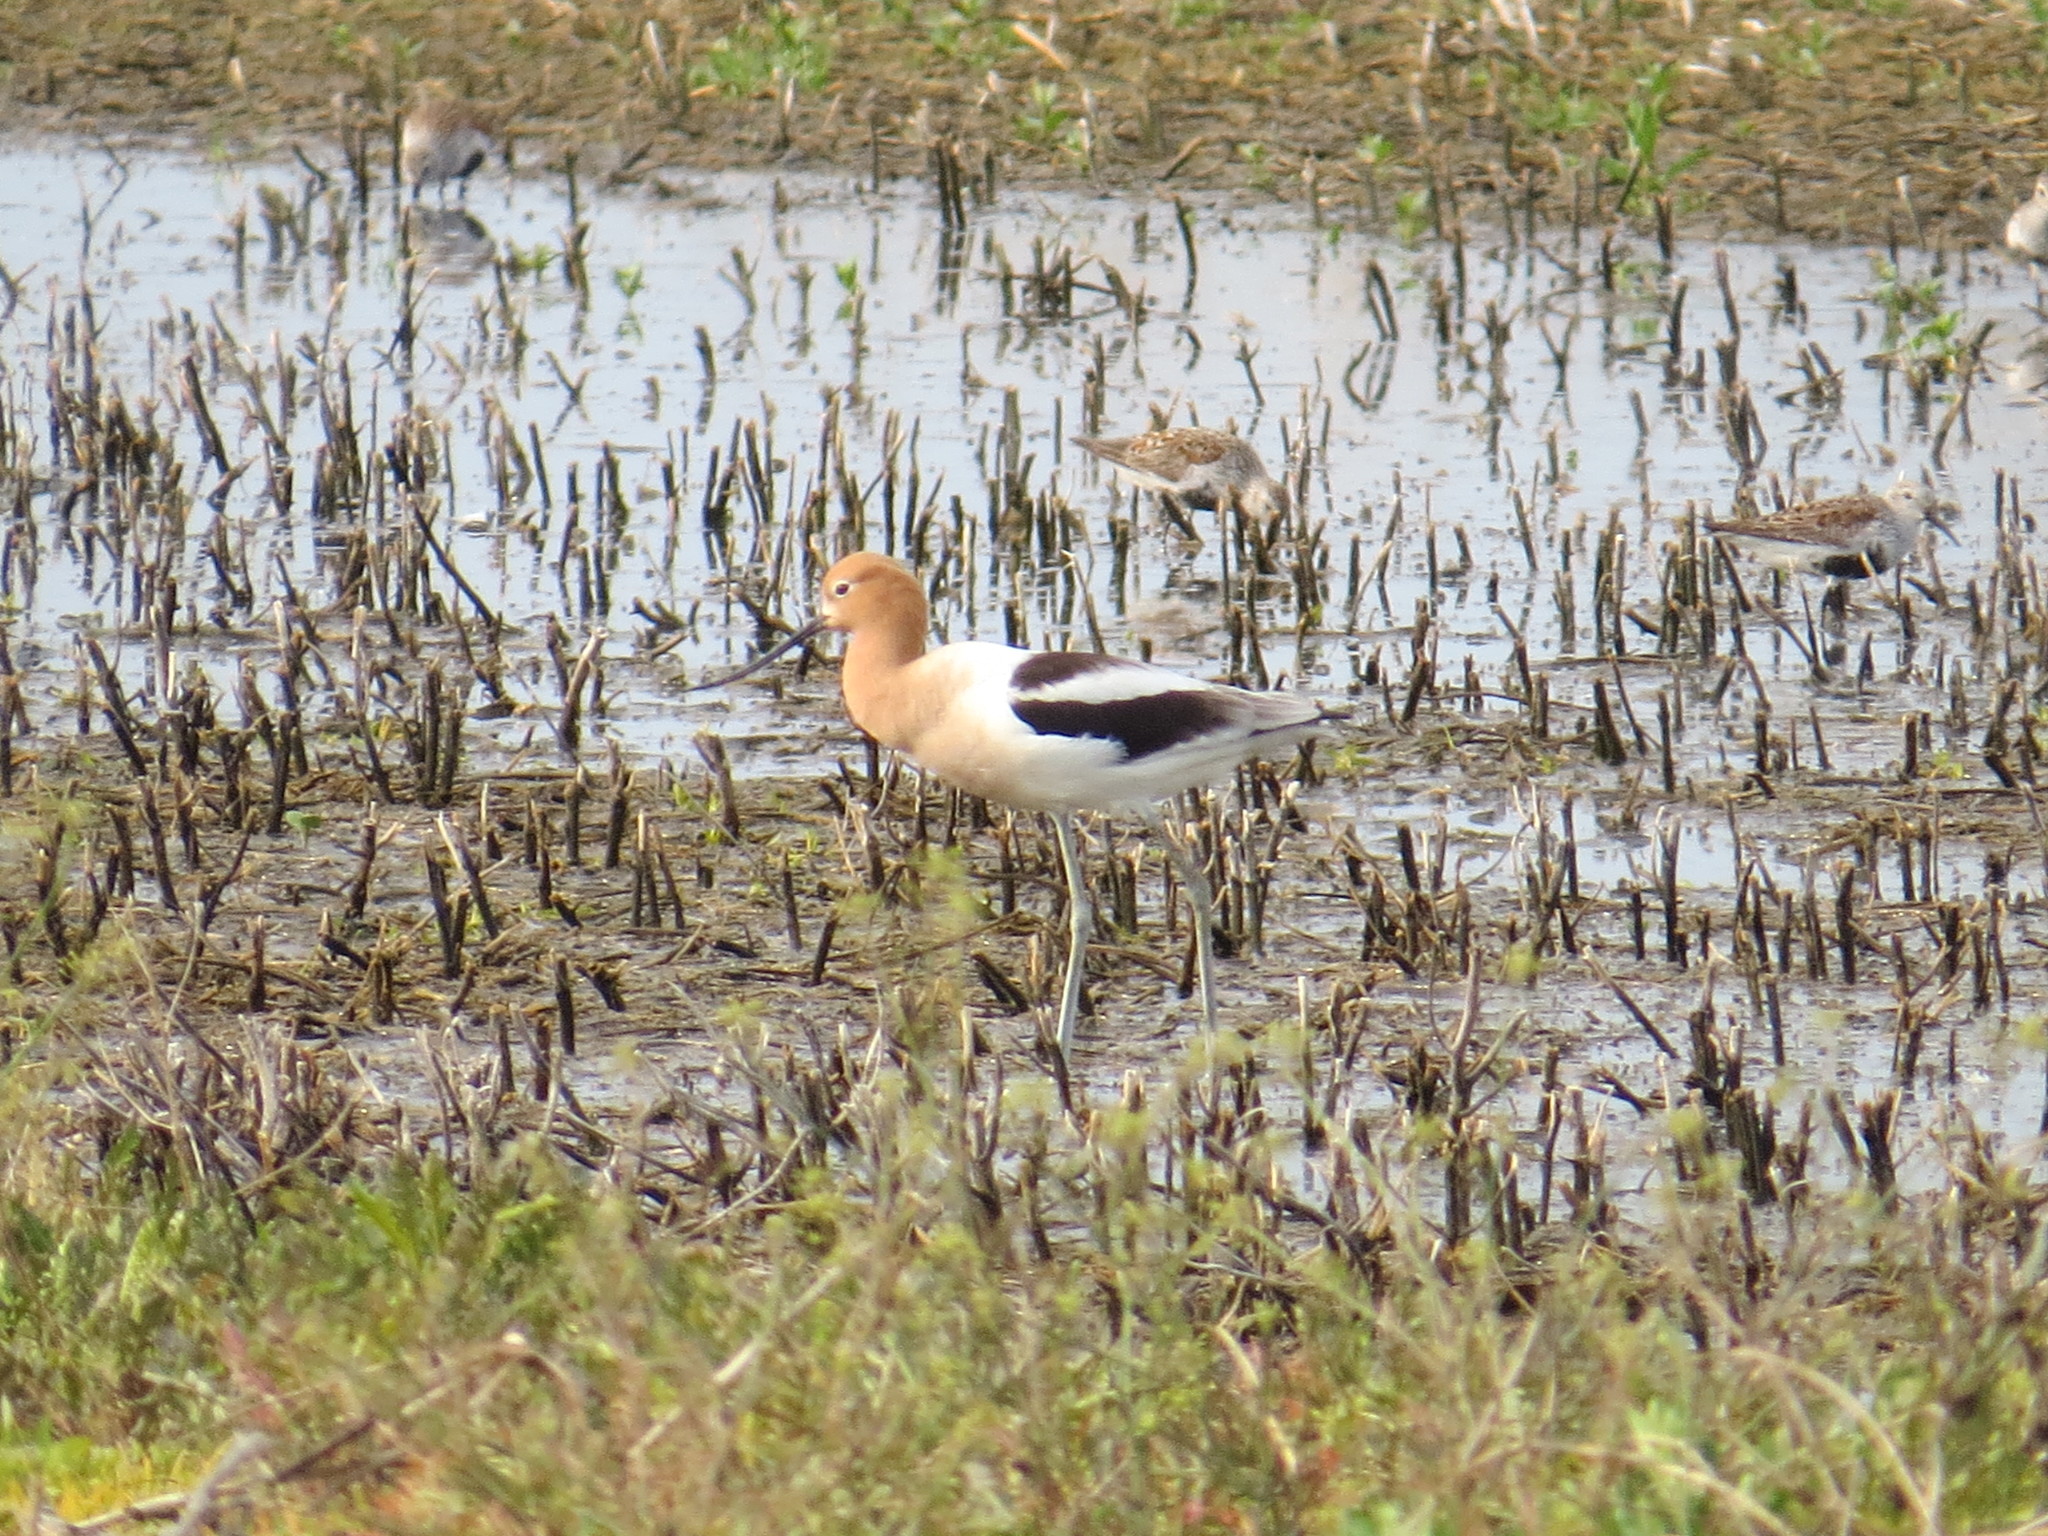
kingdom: Animalia
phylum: Chordata
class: Aves
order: Charadriiformes
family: Recurvirostridae
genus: Recurvirostra
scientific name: Recurvirostra americana
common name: American avocet
